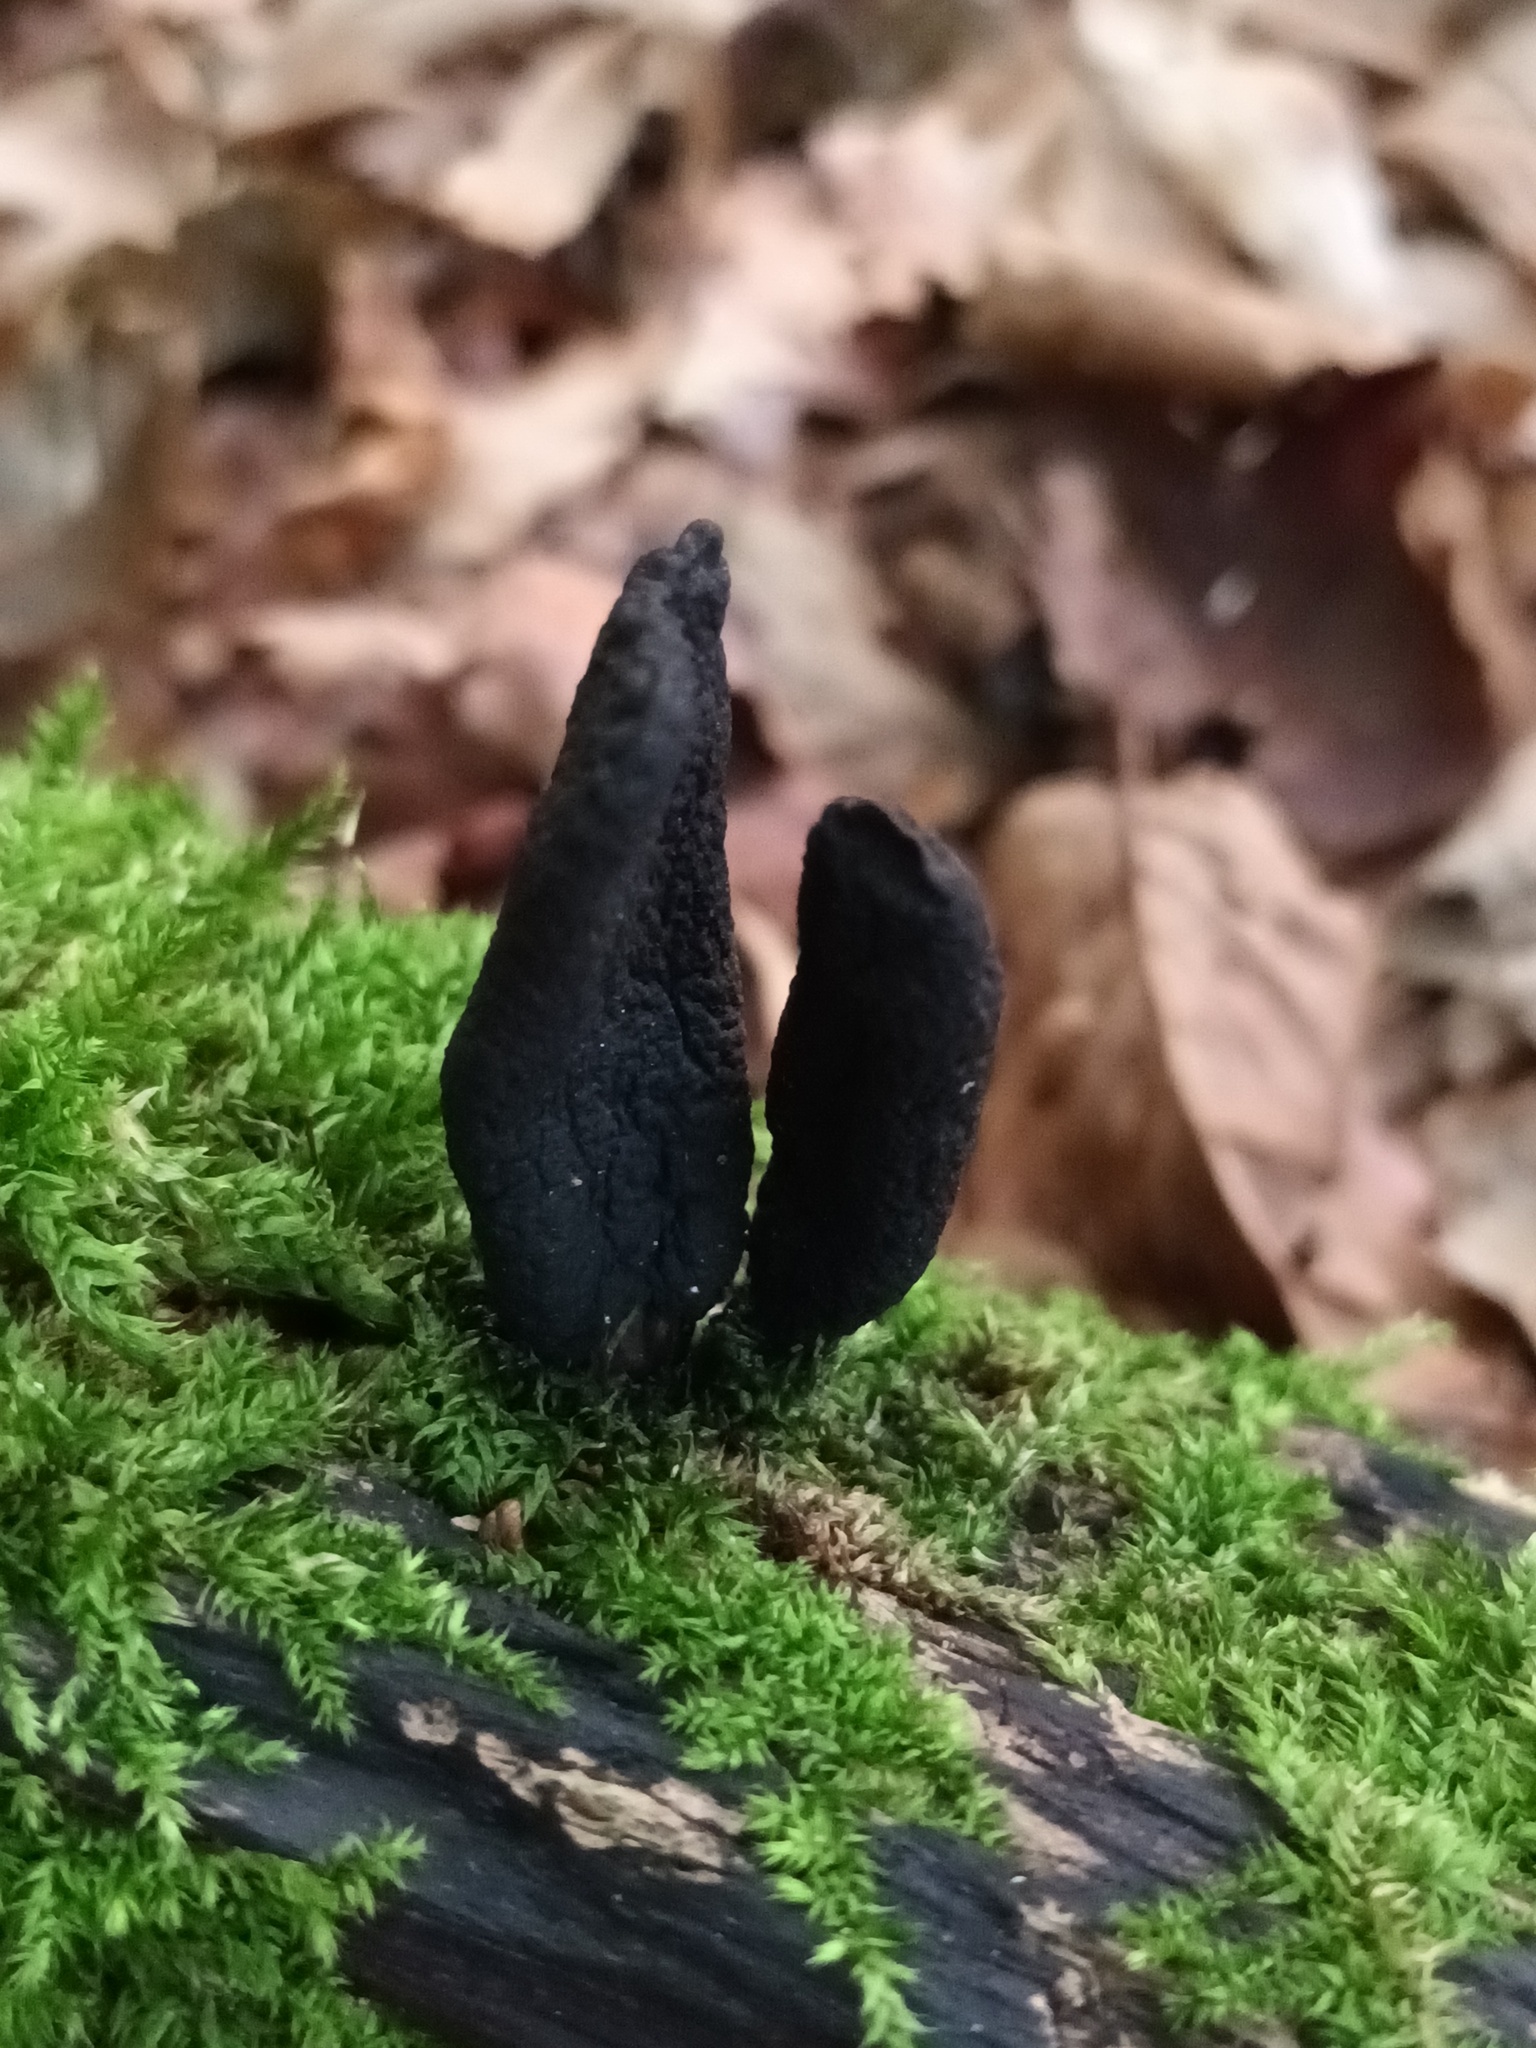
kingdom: Fungi
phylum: Ascomycota
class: Sordariomycetes
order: Xylariales
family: Xylariaceae
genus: Xylaria
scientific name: Xylaria polymorpha
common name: Dead man's fingers
